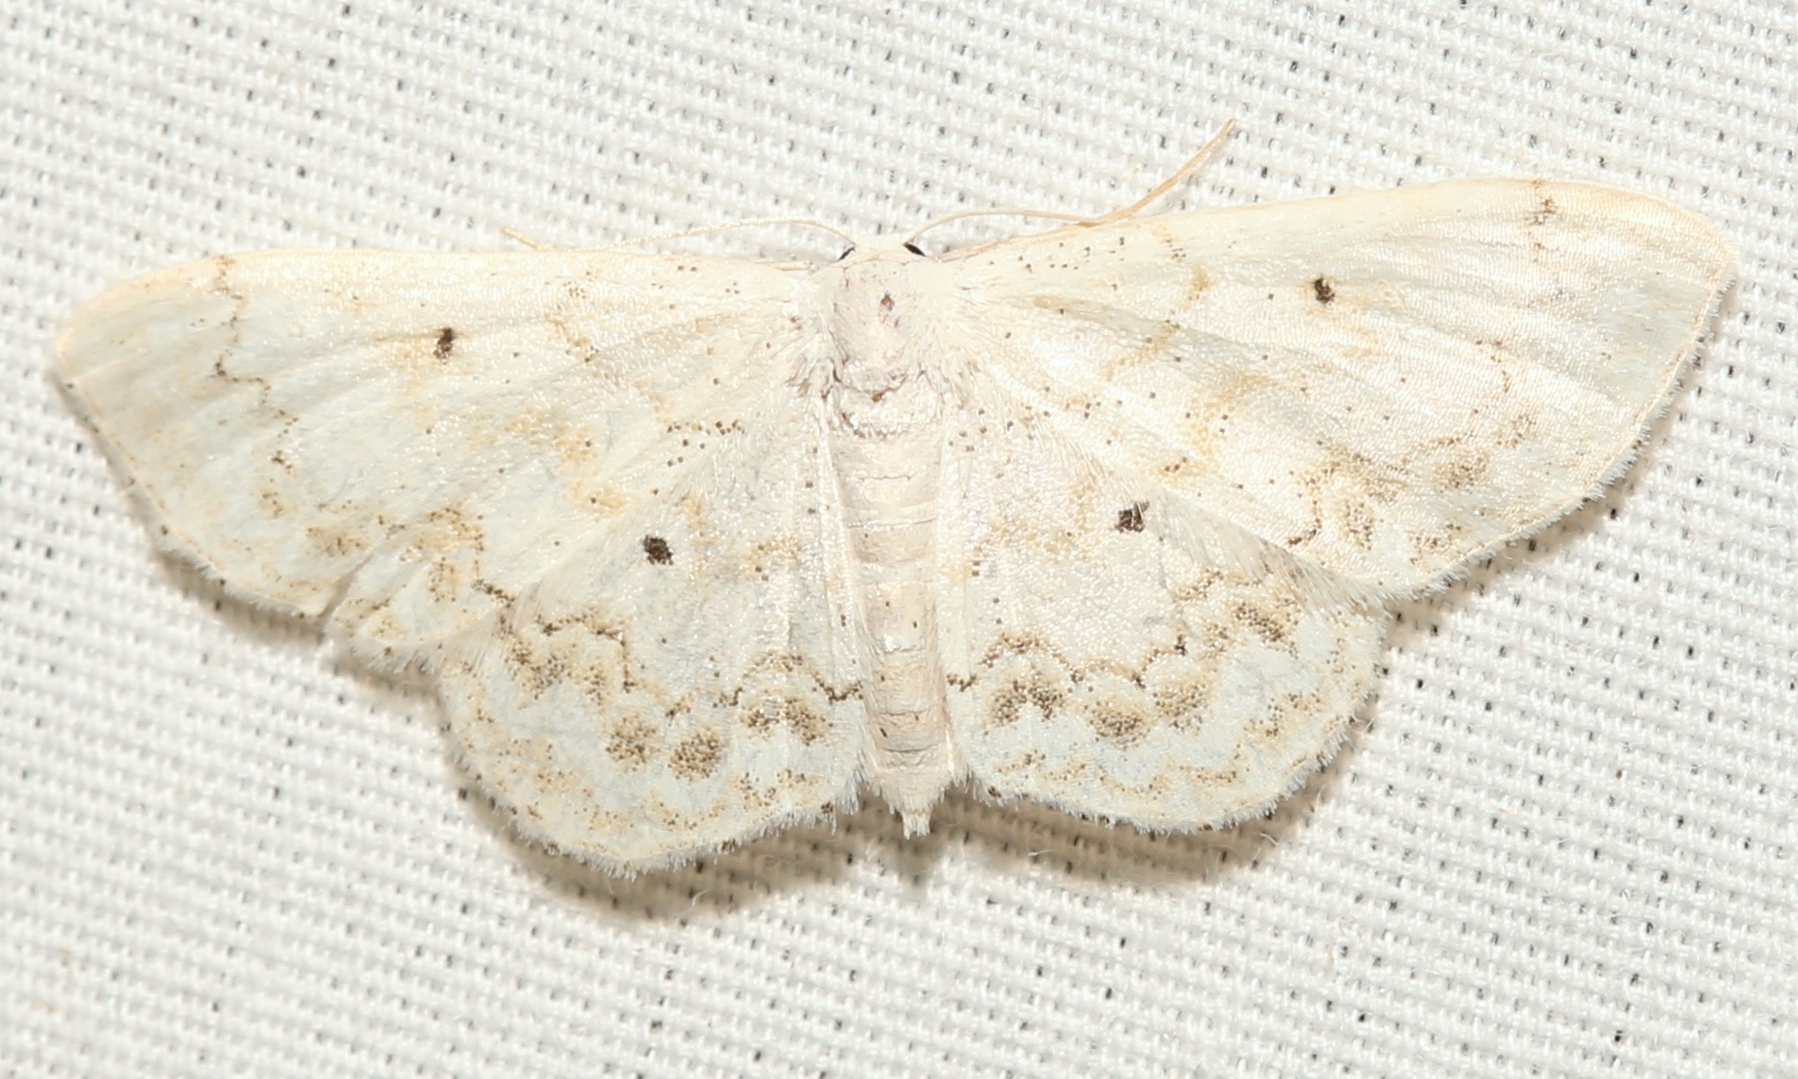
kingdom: Animalia
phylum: Arthropoda
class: Insecta
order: Lepidoptera
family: Geometridae
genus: Idaea
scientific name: Idaea obfusaria
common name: Rippled wave
